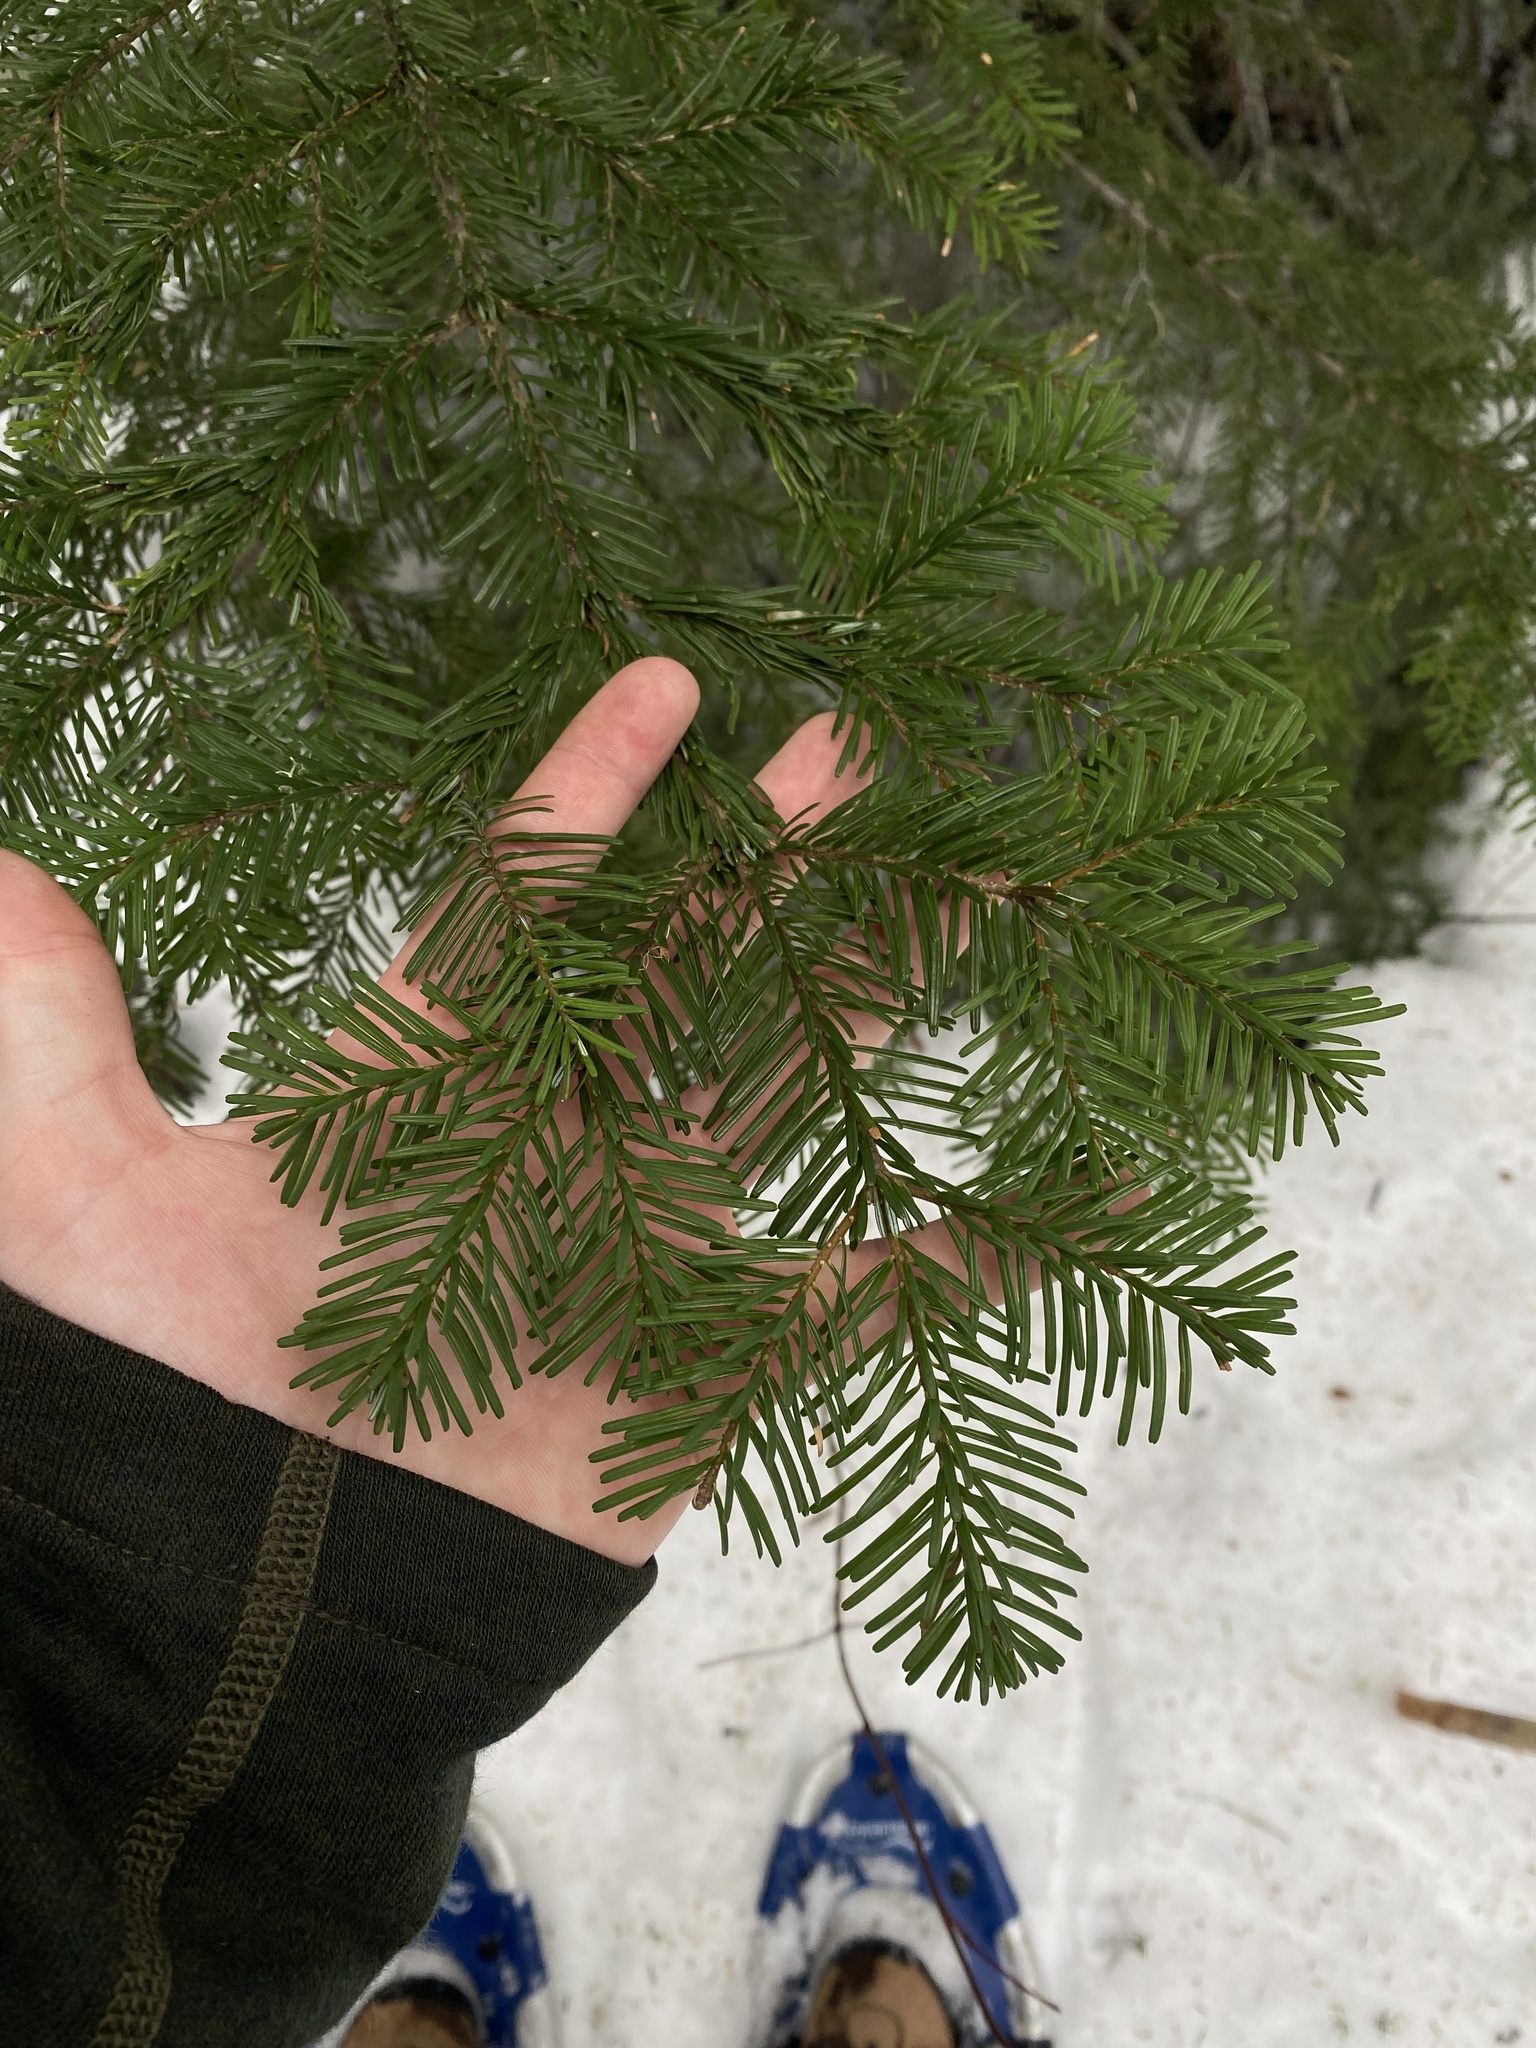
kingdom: Plantae
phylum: Tracheophyta
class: Pinopsida
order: Pinales
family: Pinaceae
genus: Abies
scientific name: Abies amabilis
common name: Pacific silver fir
